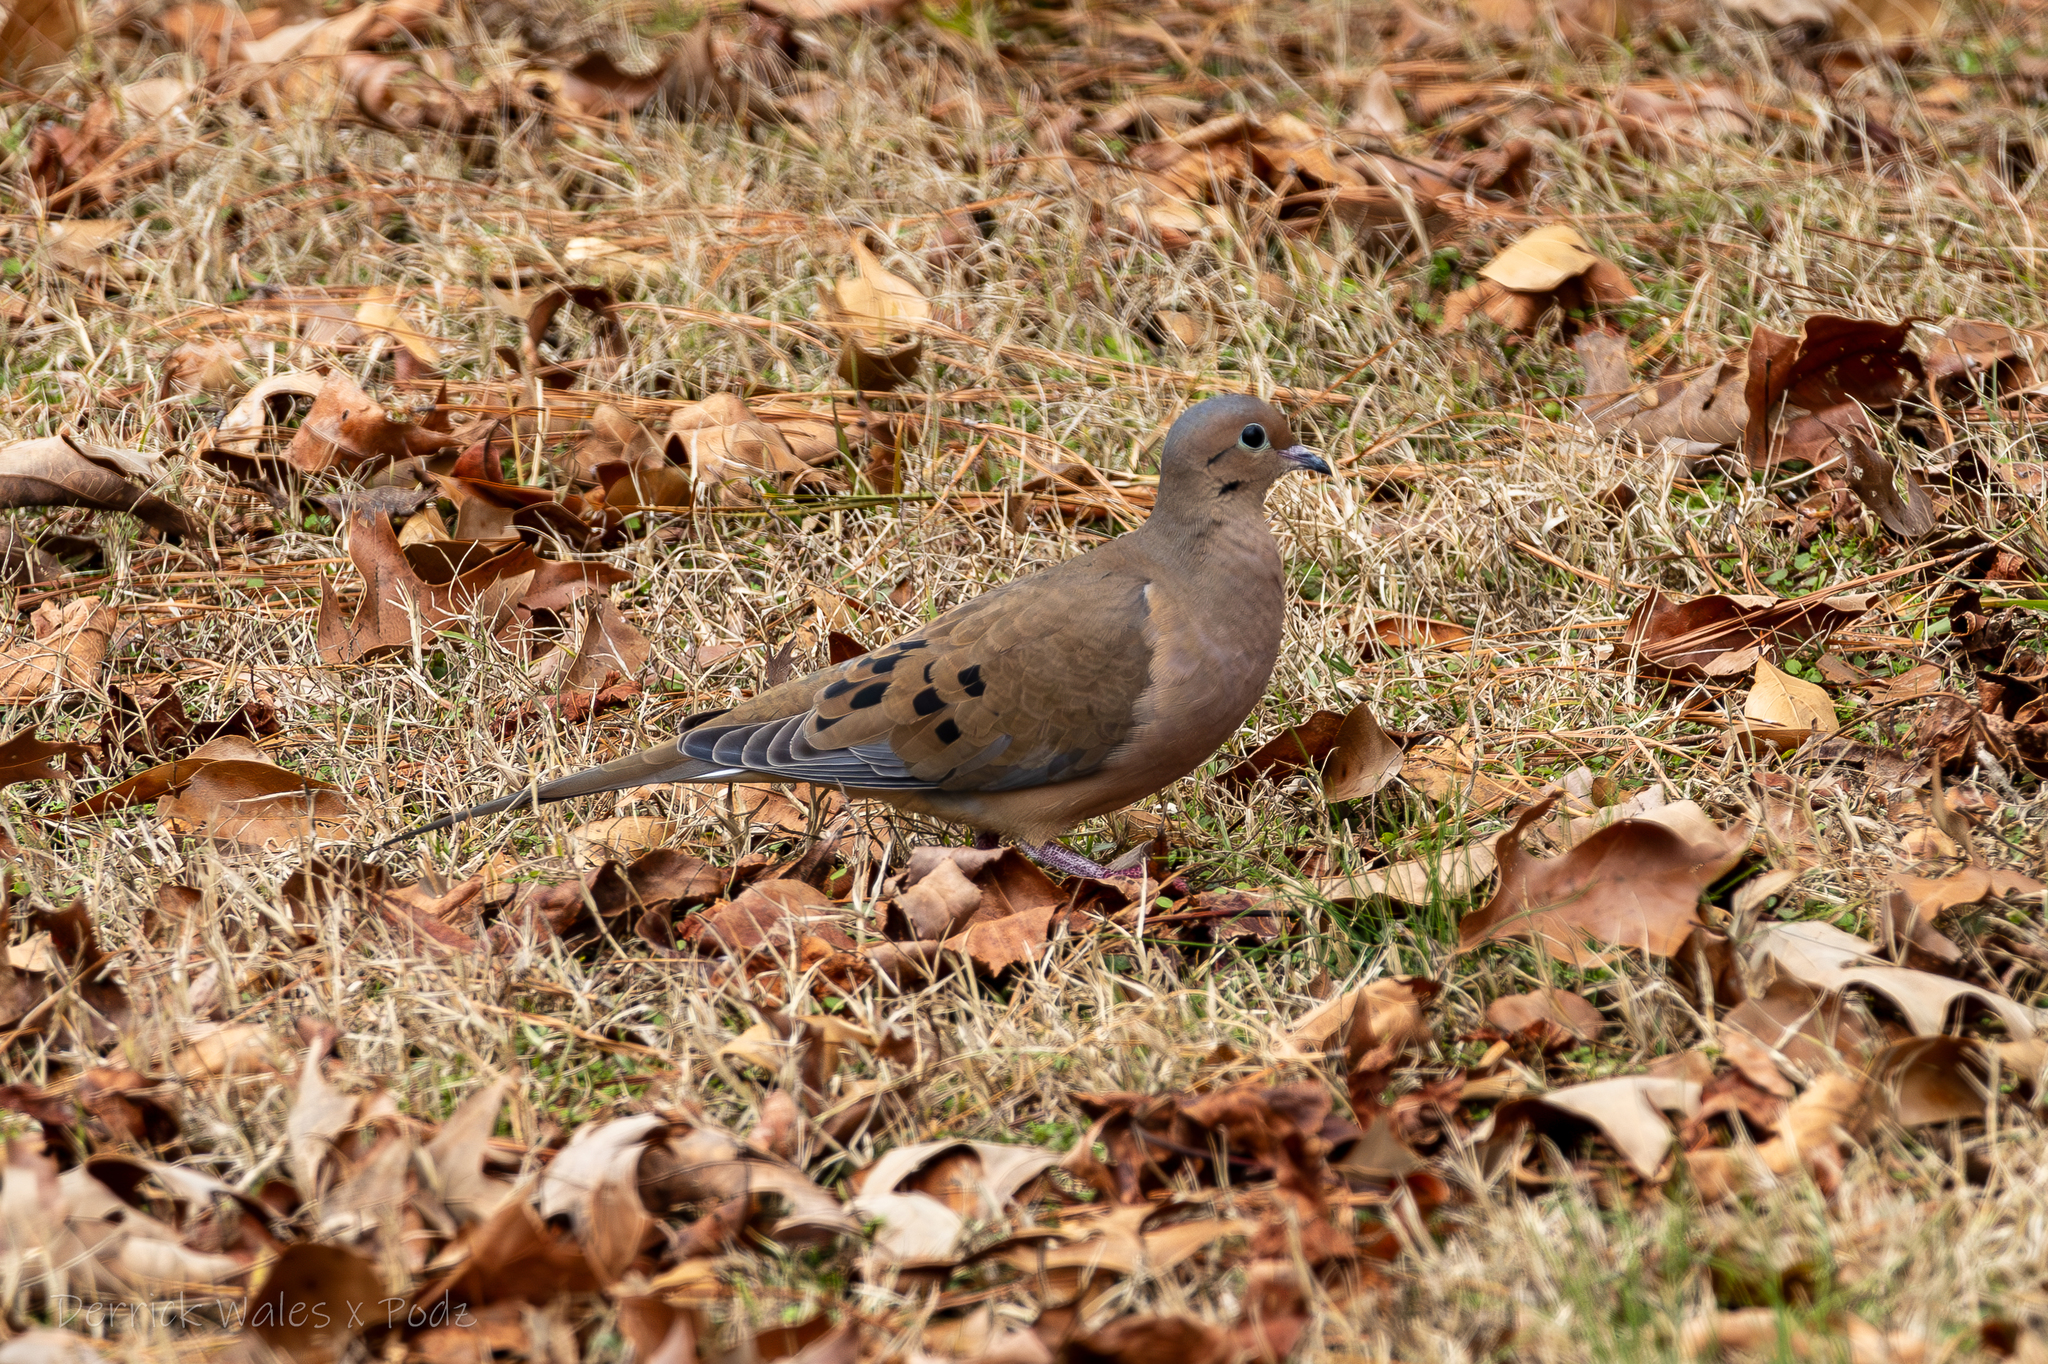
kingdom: Animalia
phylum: Chordata
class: Aves
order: Columbiformes
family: Columbidae
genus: Zenaida
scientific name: Zenaida macroura
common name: Mourning dove
